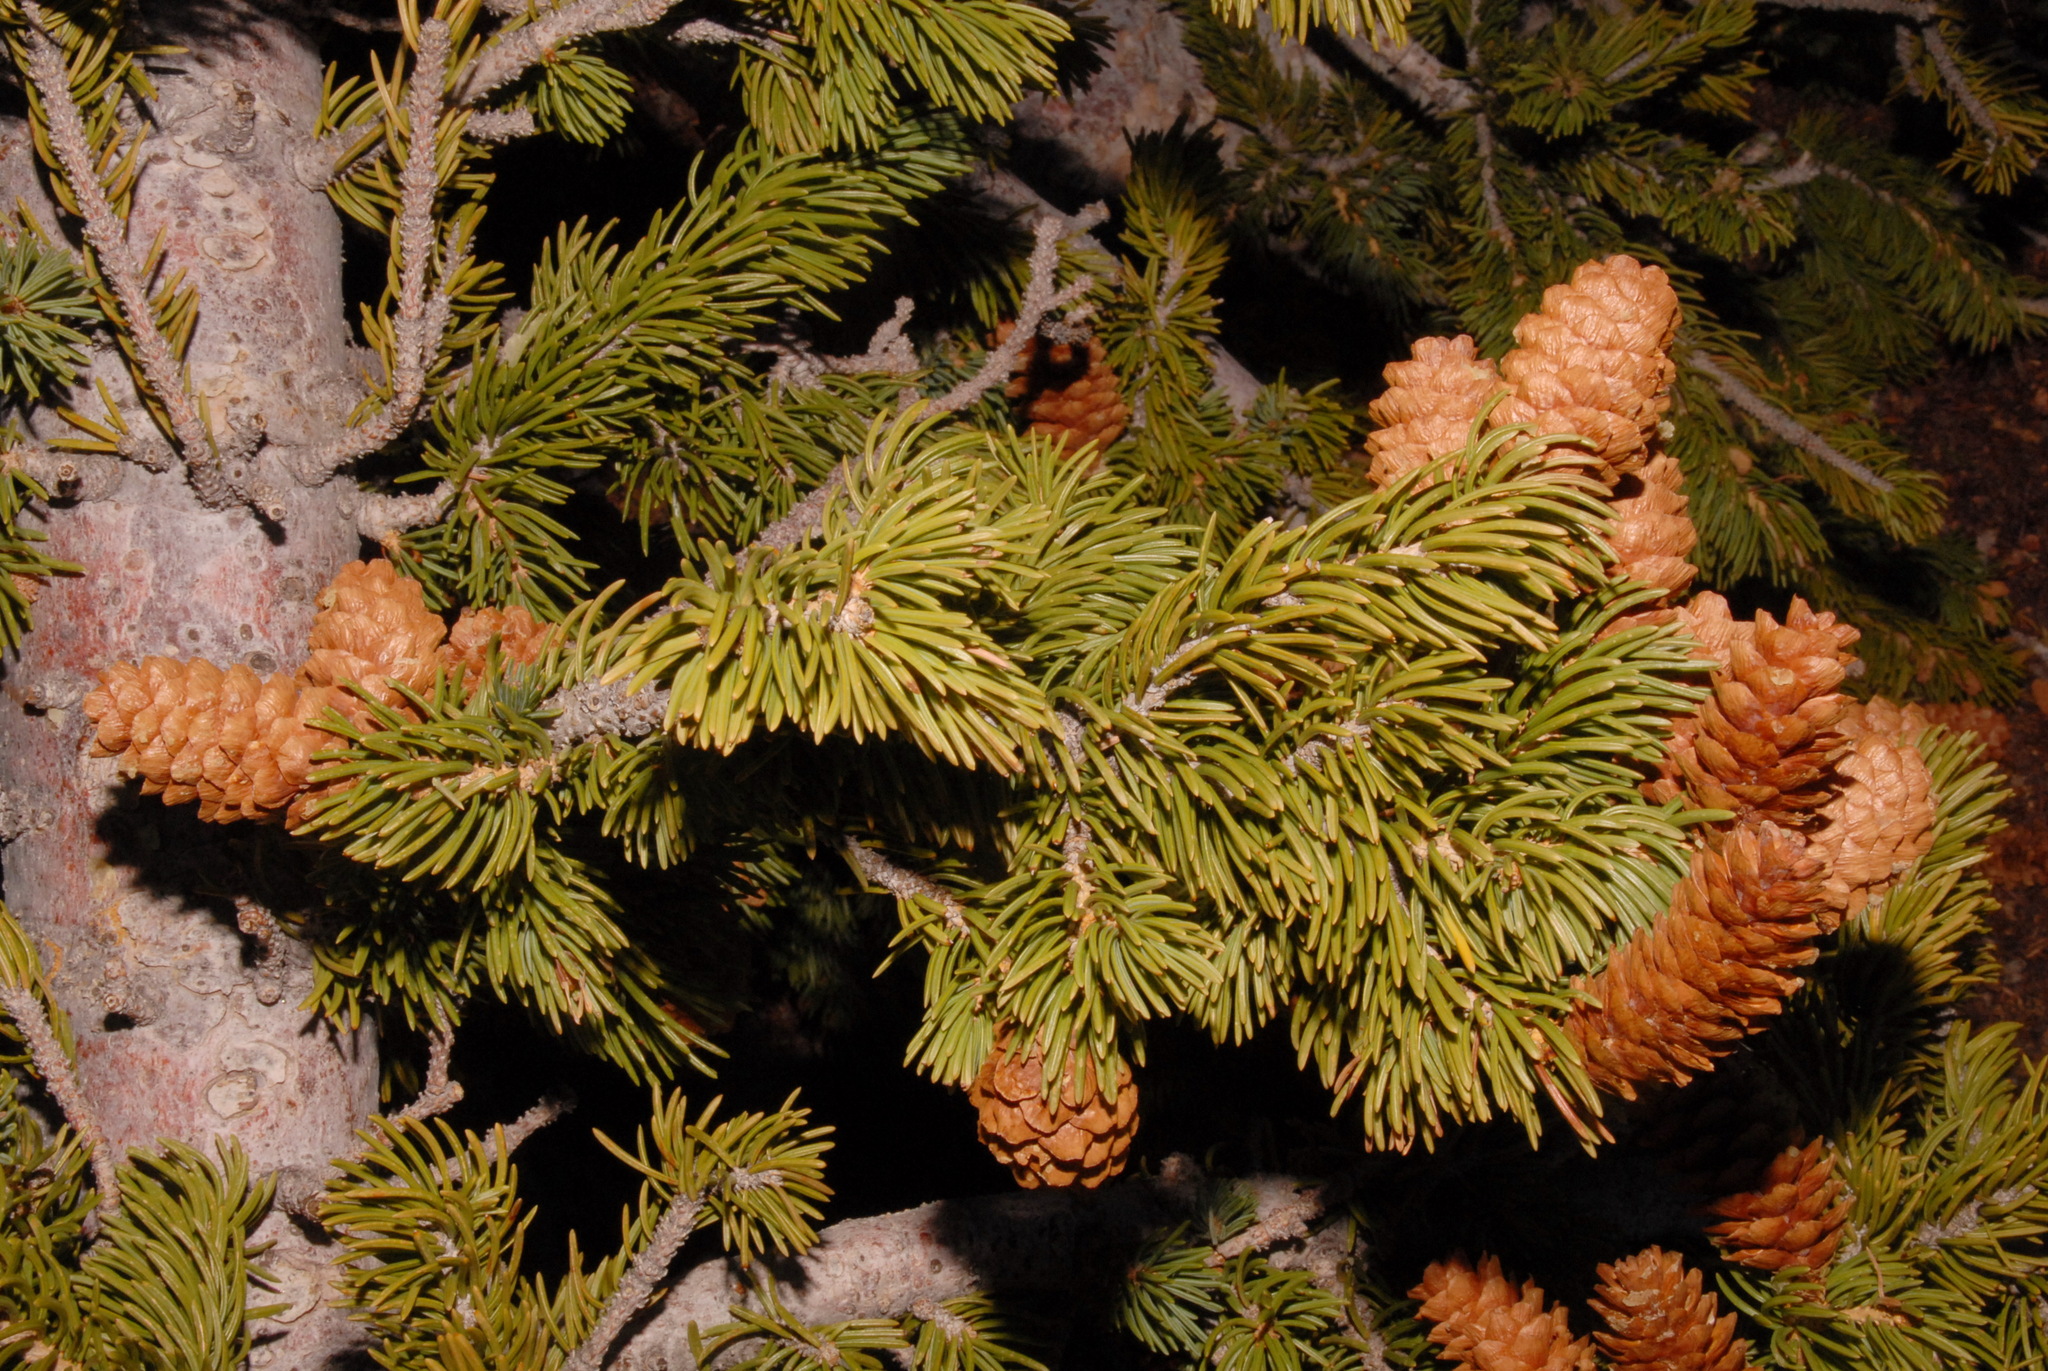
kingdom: Plantae
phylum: Tracheophyta
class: Pinopsida
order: Pinales
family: Pinaceae
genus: Picea
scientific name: Picea engelmannii
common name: Engelmann spruce
